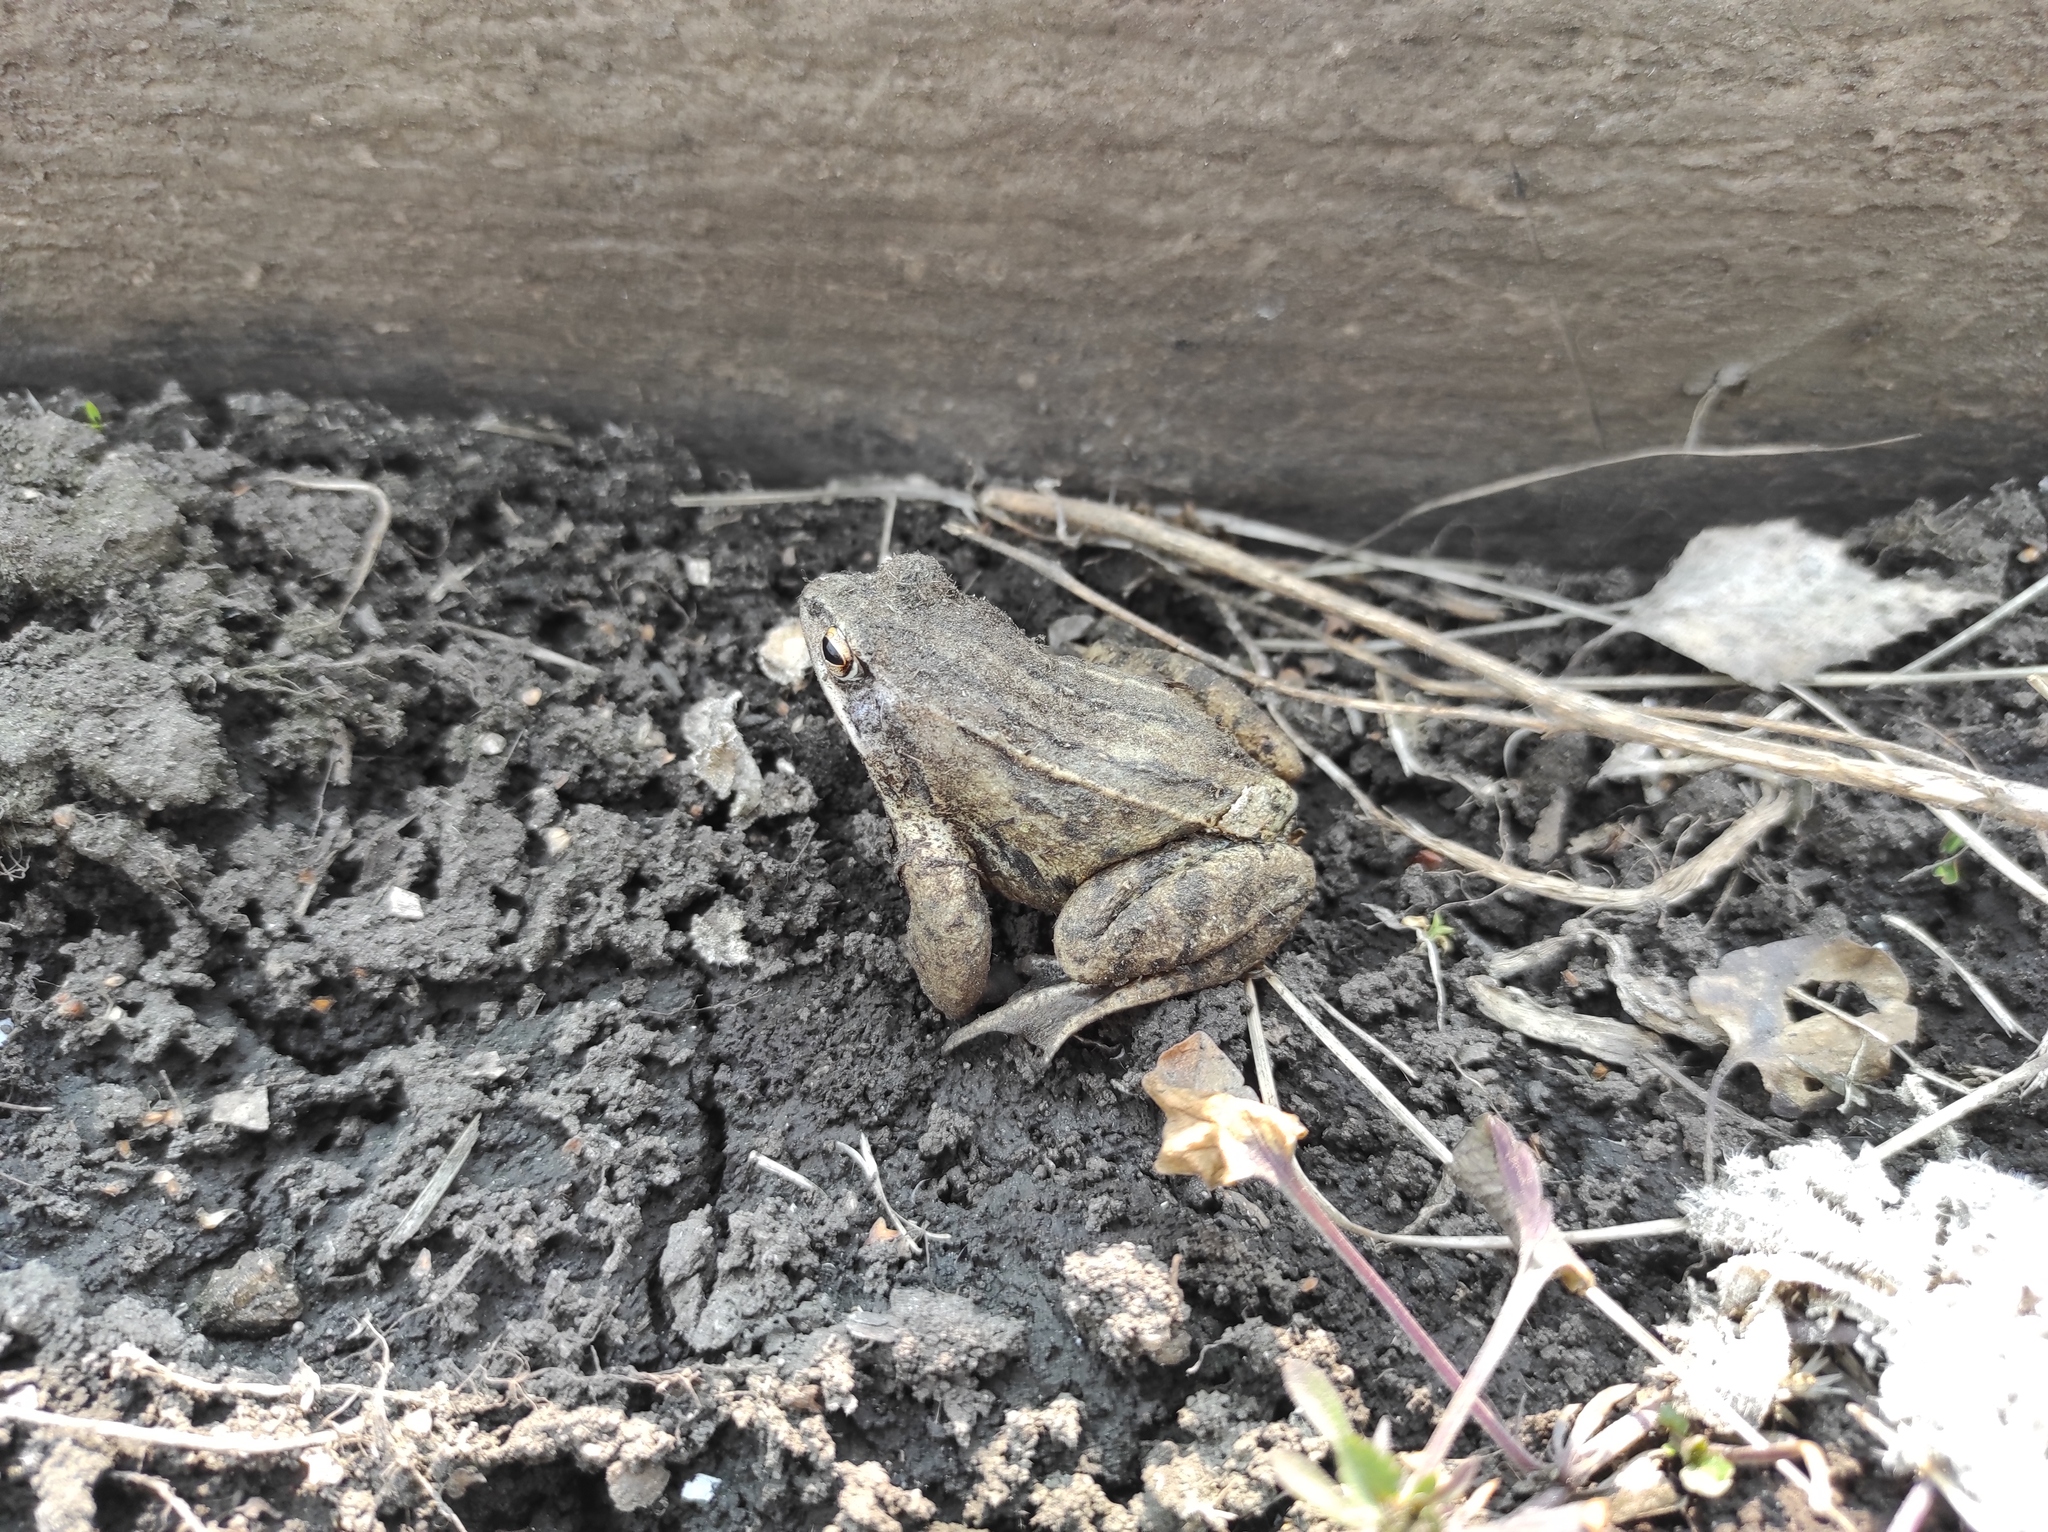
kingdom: Animalia
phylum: Chordata
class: Amphibia
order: Anura
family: Ranidae
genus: Rana
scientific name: Rana arvalis
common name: Moor frog
